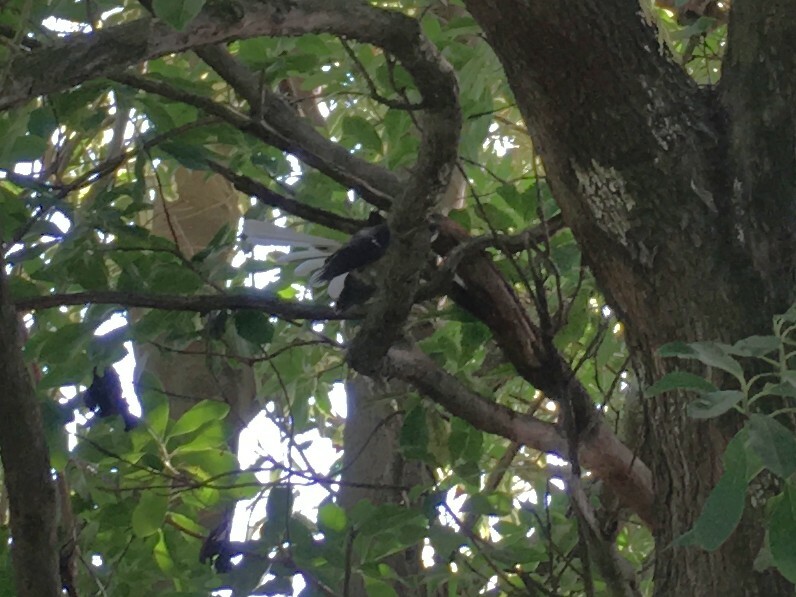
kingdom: Animalia
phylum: Chordata
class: Aves
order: Passeriformes
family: Rhipiduridae
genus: Rhipidura
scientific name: Rhipidura fuliginosa
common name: New zealand fantail
